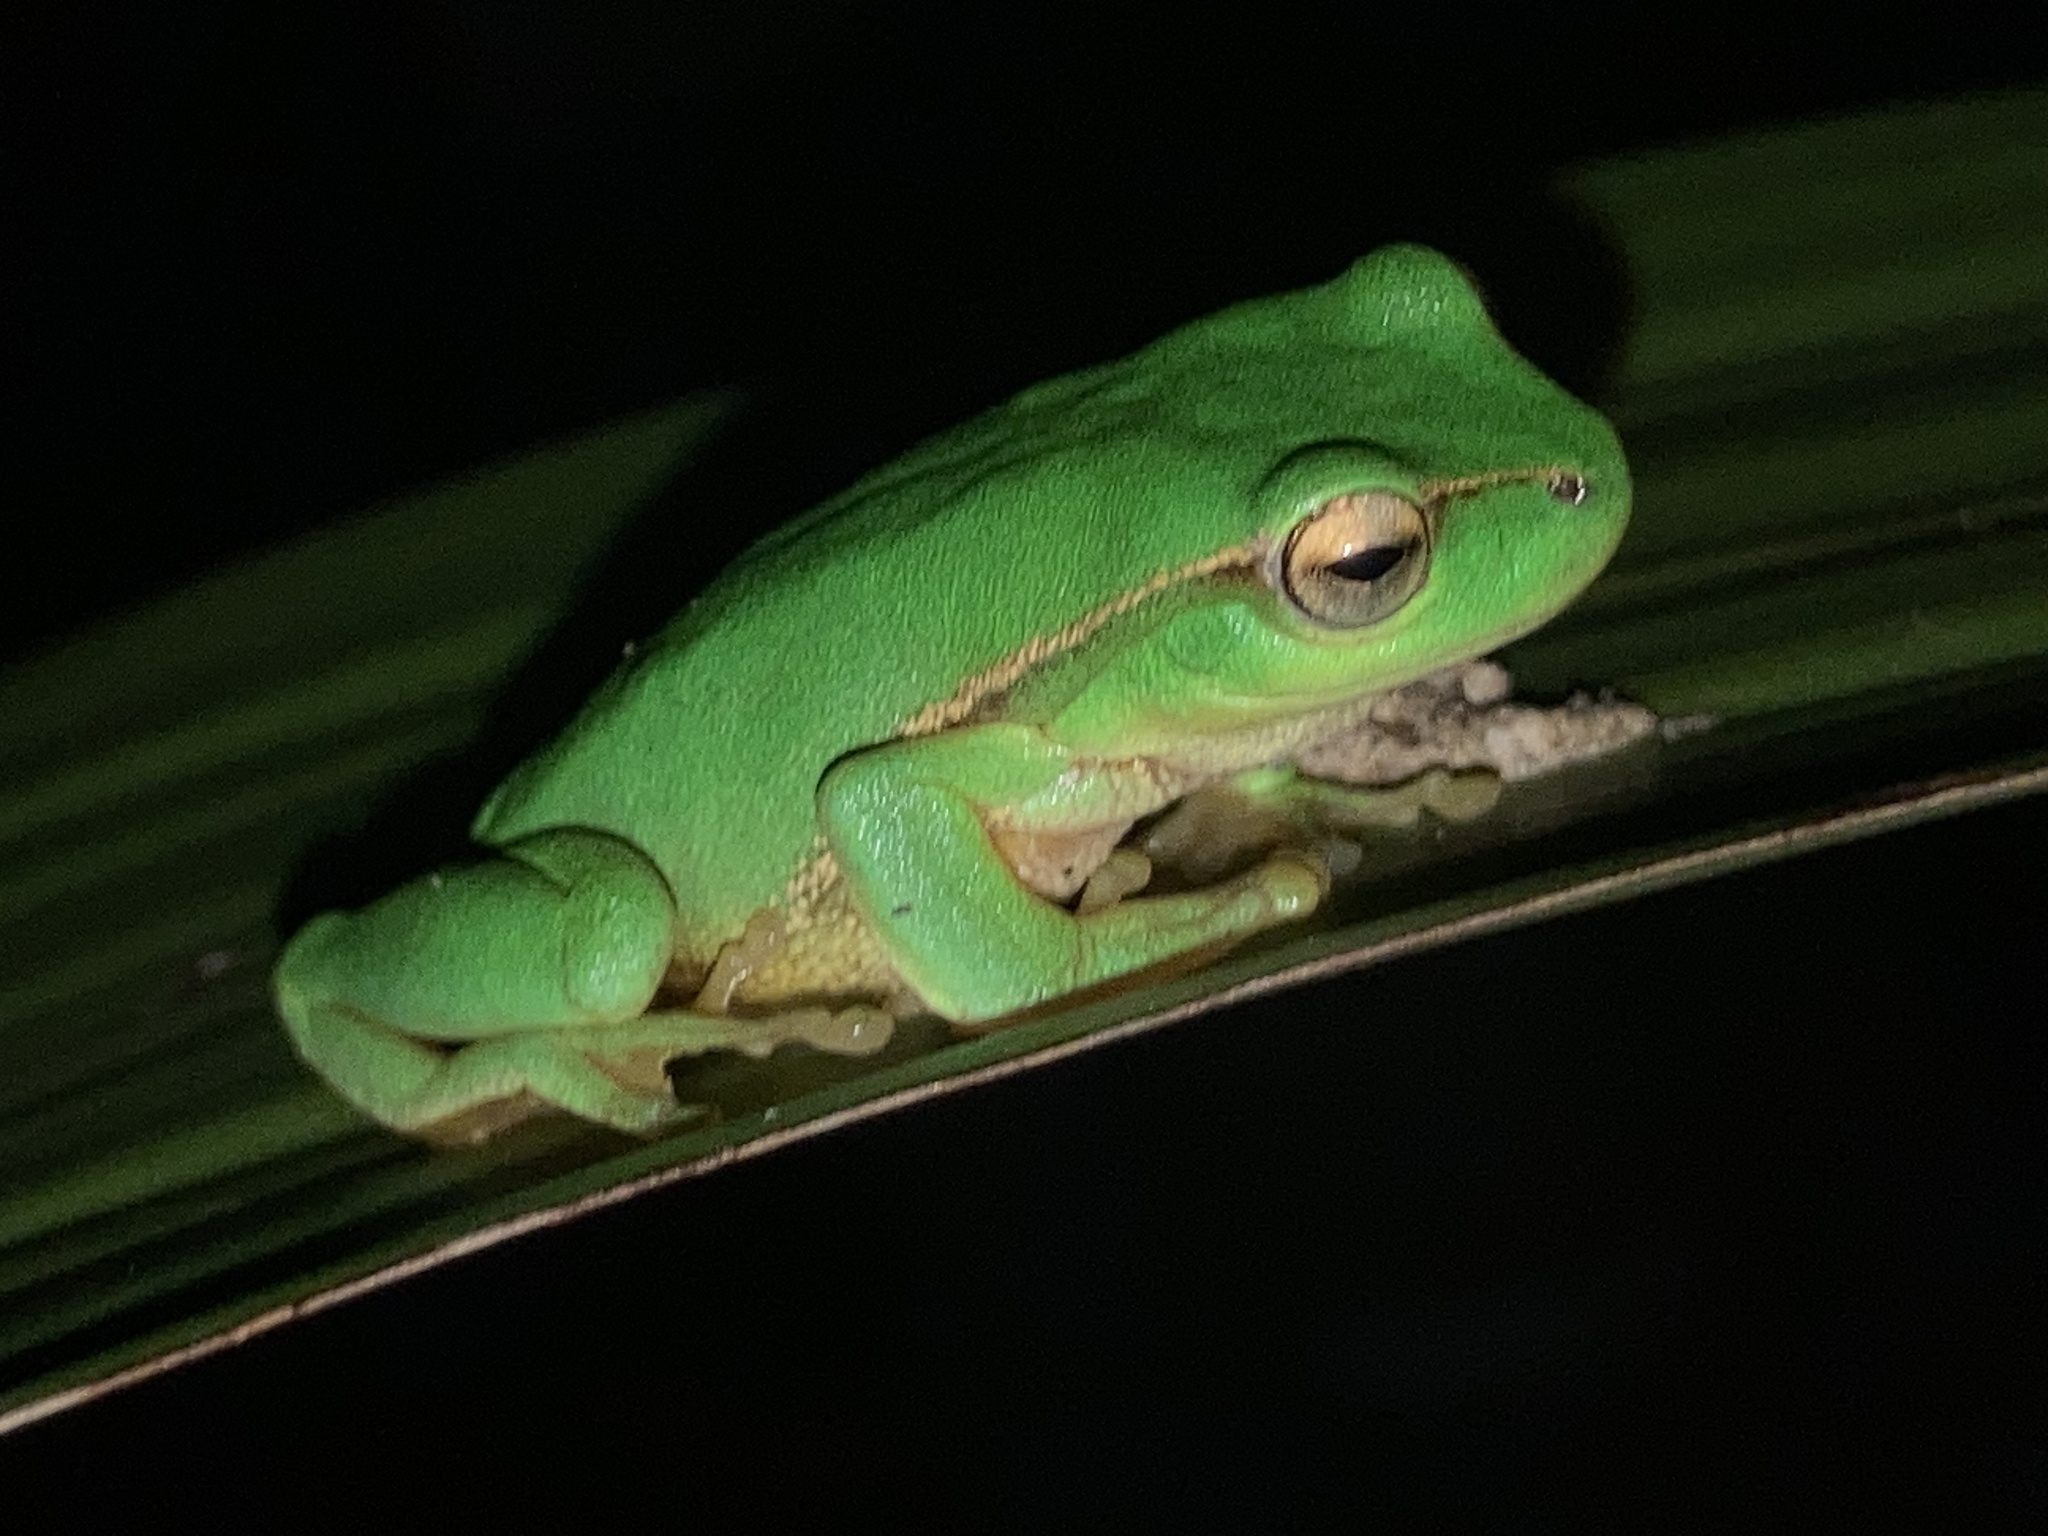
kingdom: Animalia
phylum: Chordata
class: Amphibia
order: Anura
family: Pelodryadidae
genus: Ranoidea
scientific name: Ranoidea nudidigita
